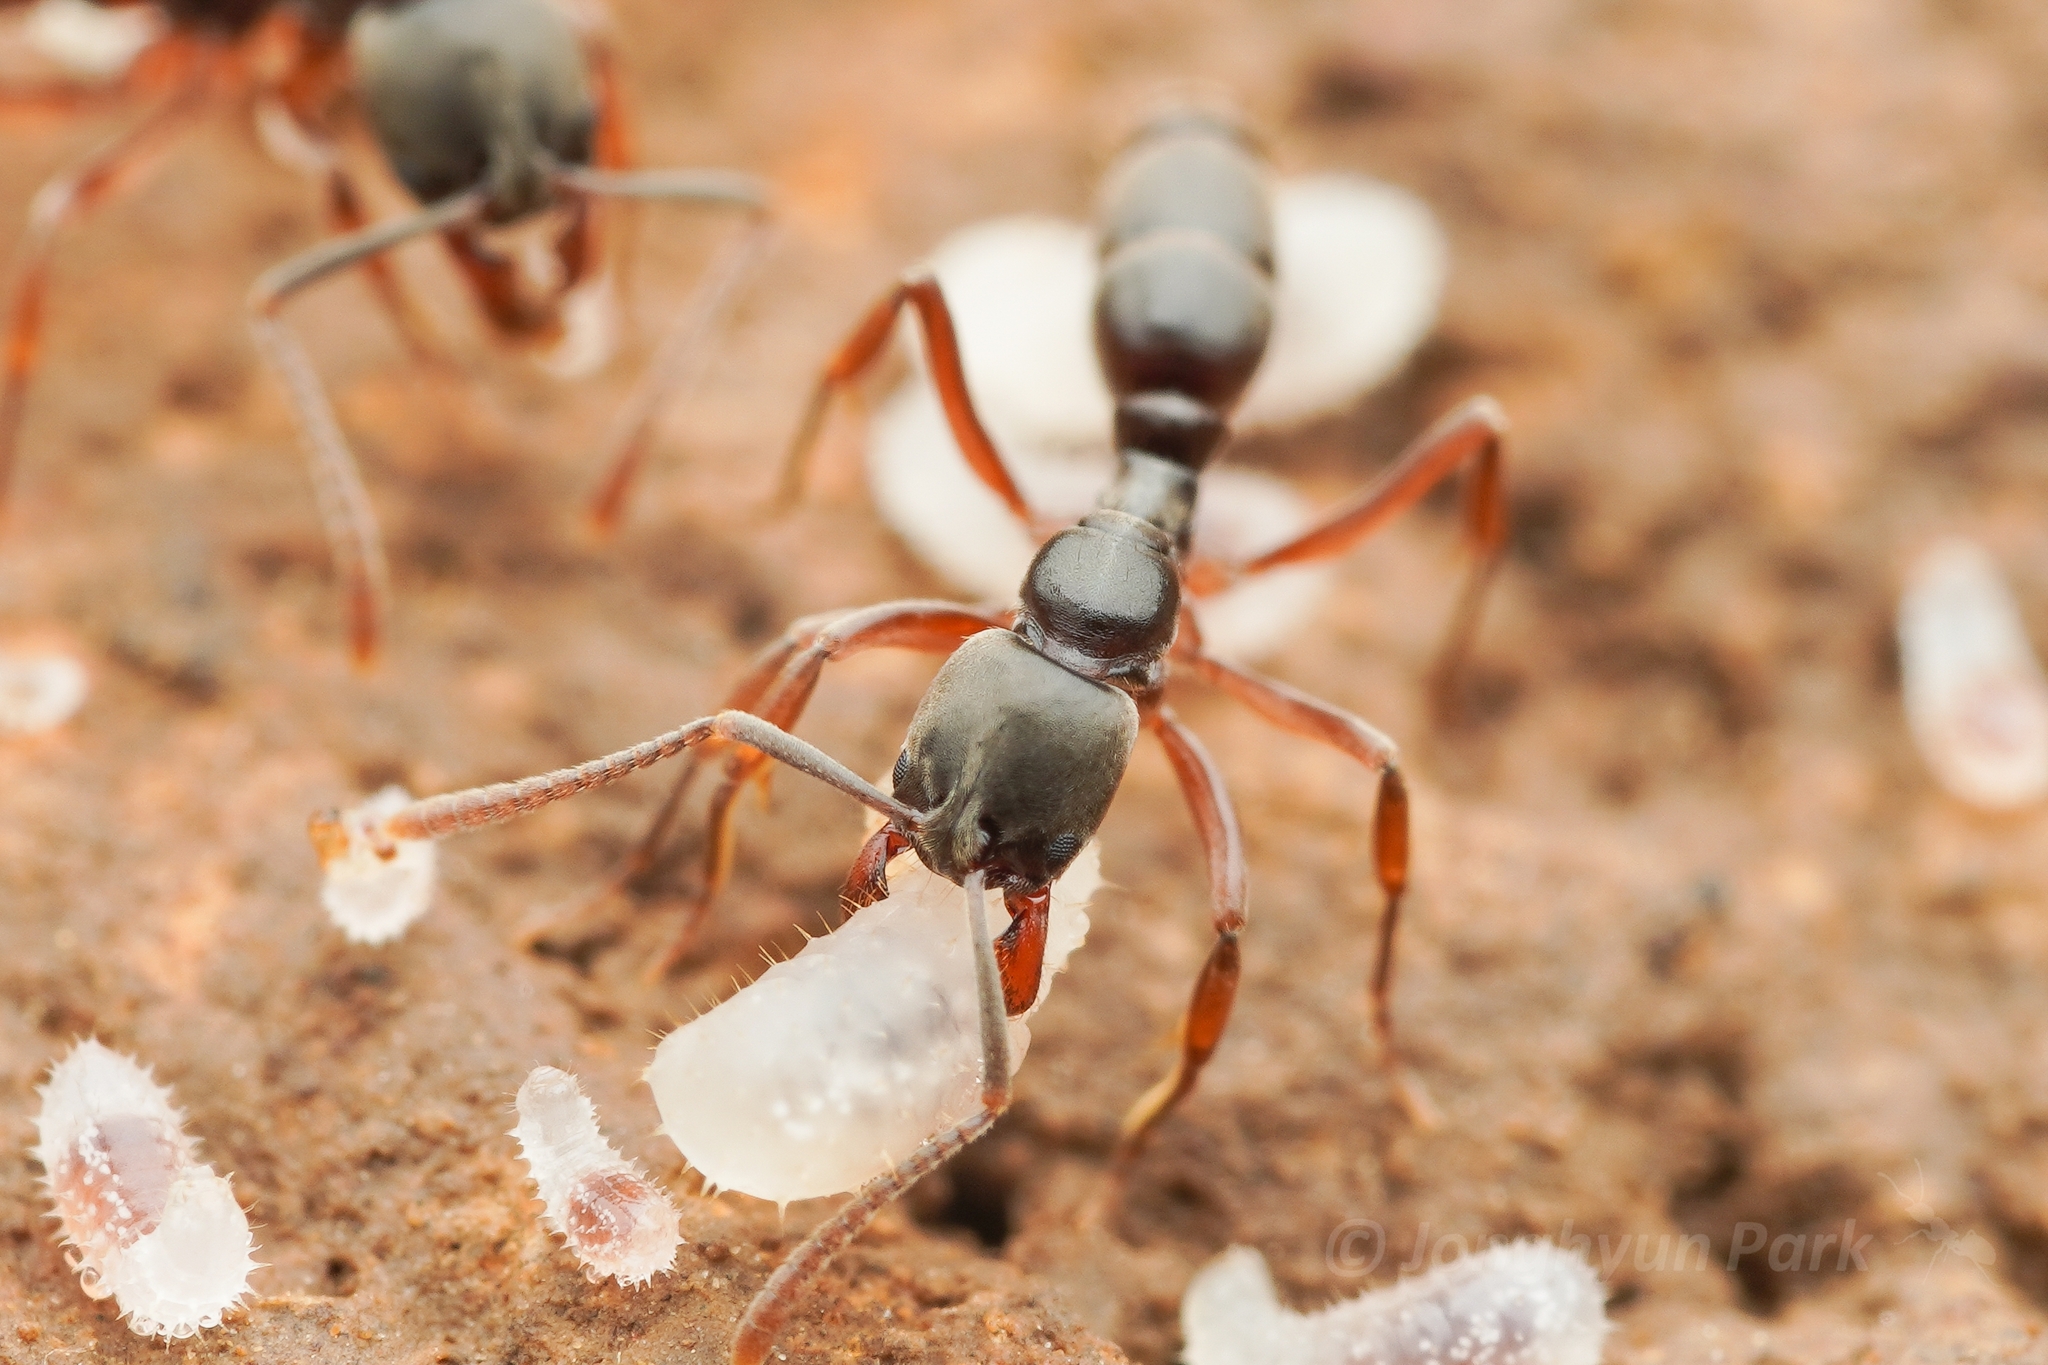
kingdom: Animalia
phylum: Arthropoda
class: Insecta
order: Hymenoptera
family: Formicidae
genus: Pachycondyla
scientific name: Pachycondyla chinensis
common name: Asian needle ant
